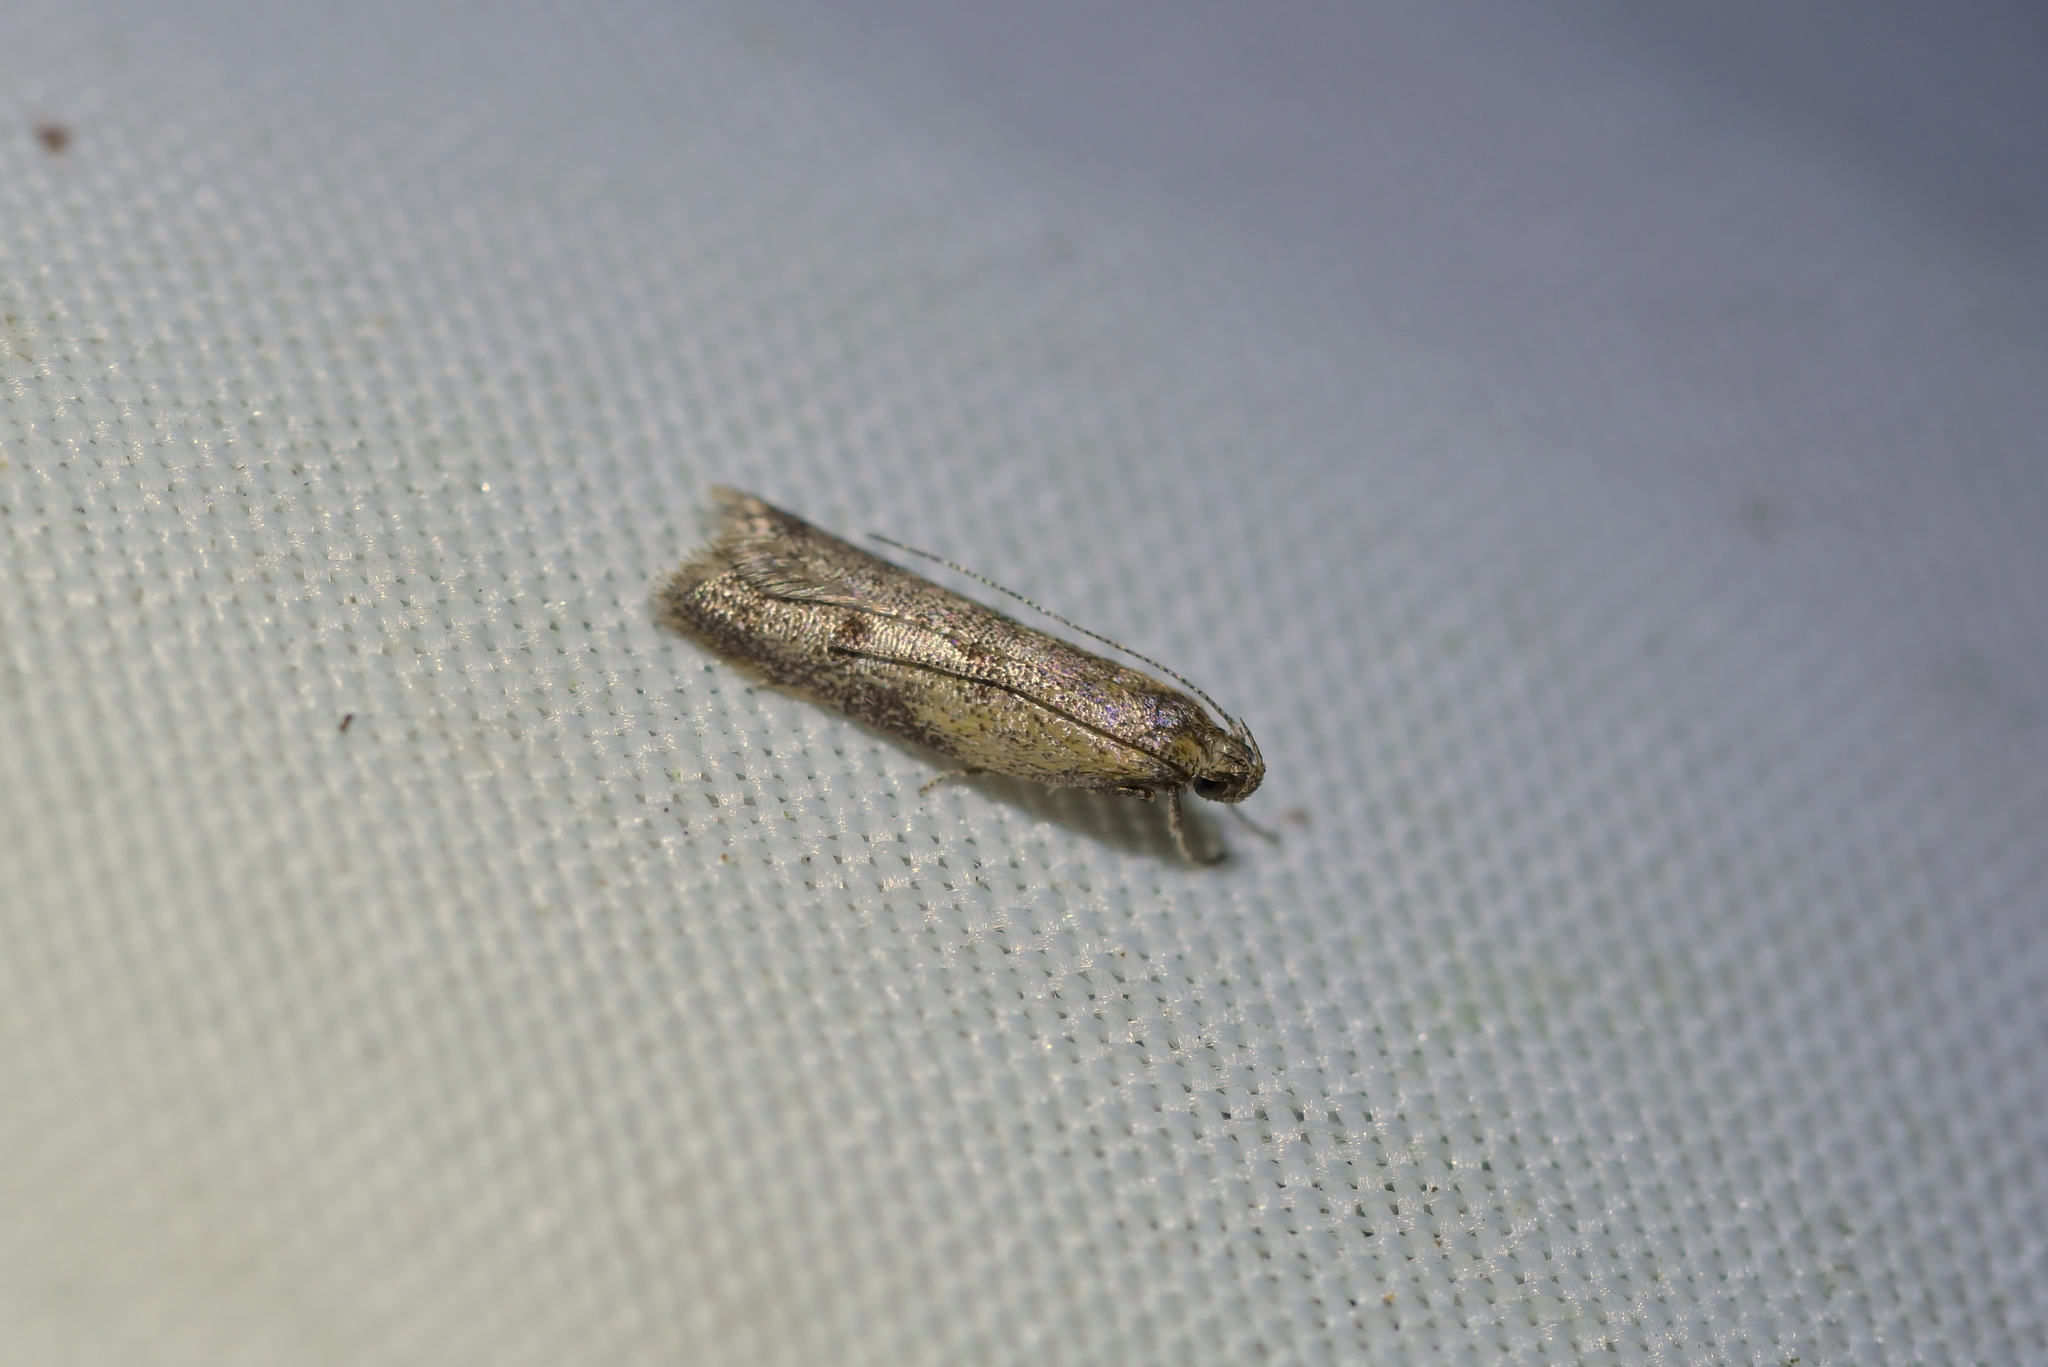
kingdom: Animalia
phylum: Arthropoda
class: Insecta
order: Lepidoptera
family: Oecophoridae
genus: Gymnobathra
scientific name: Gymnobathra tholodella
